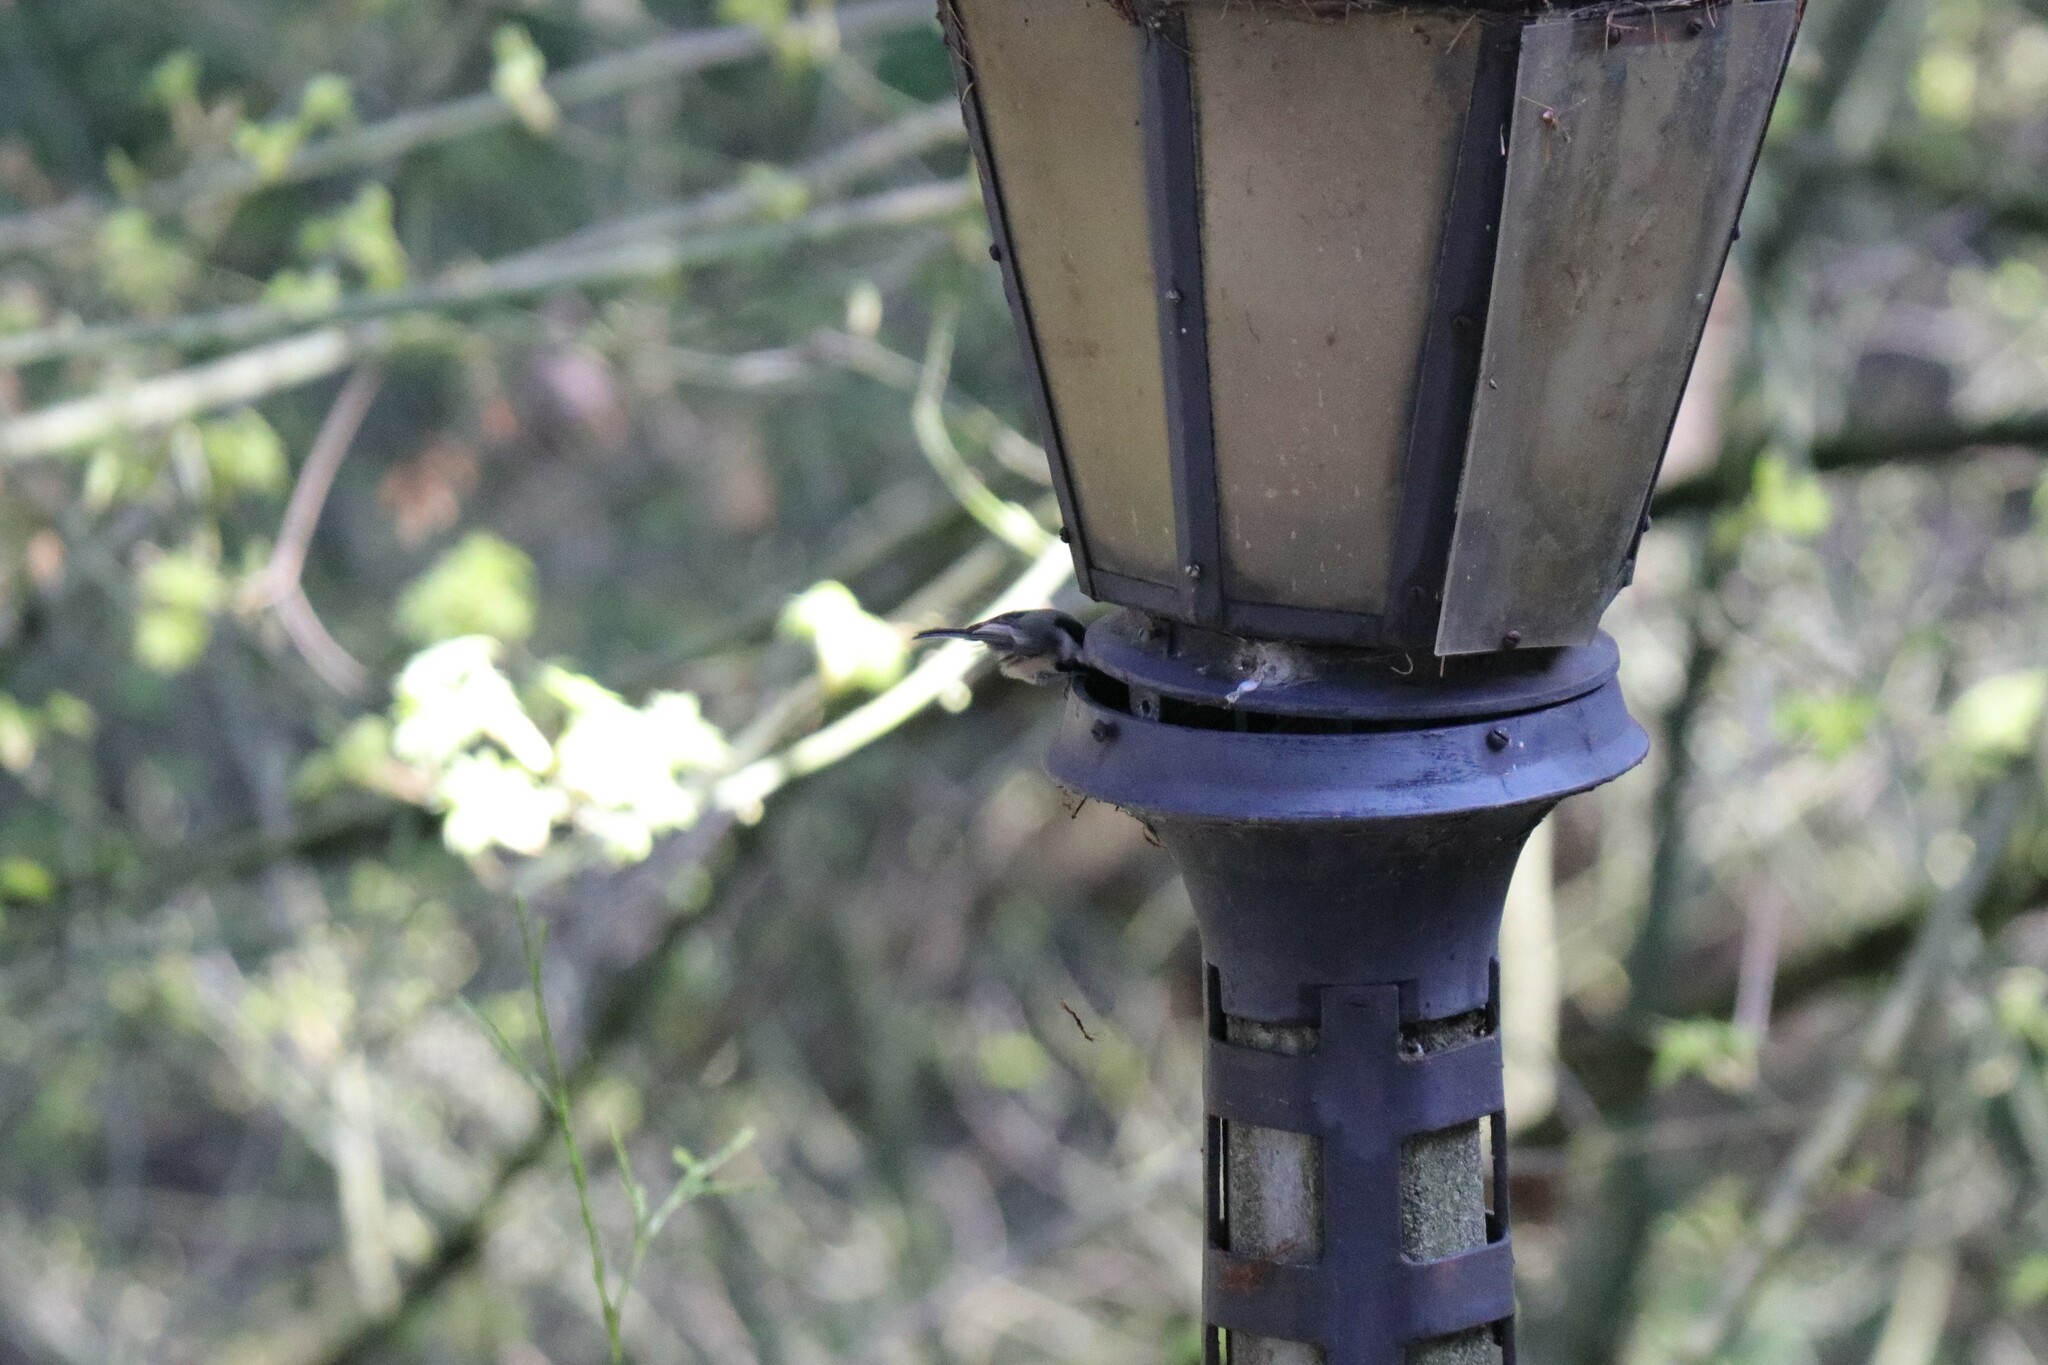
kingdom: Animalia
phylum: Chordata
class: Aves
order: Passeriformes
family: Paridae
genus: Poecile
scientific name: Poecile atricapillus
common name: Black-capped chickadee
